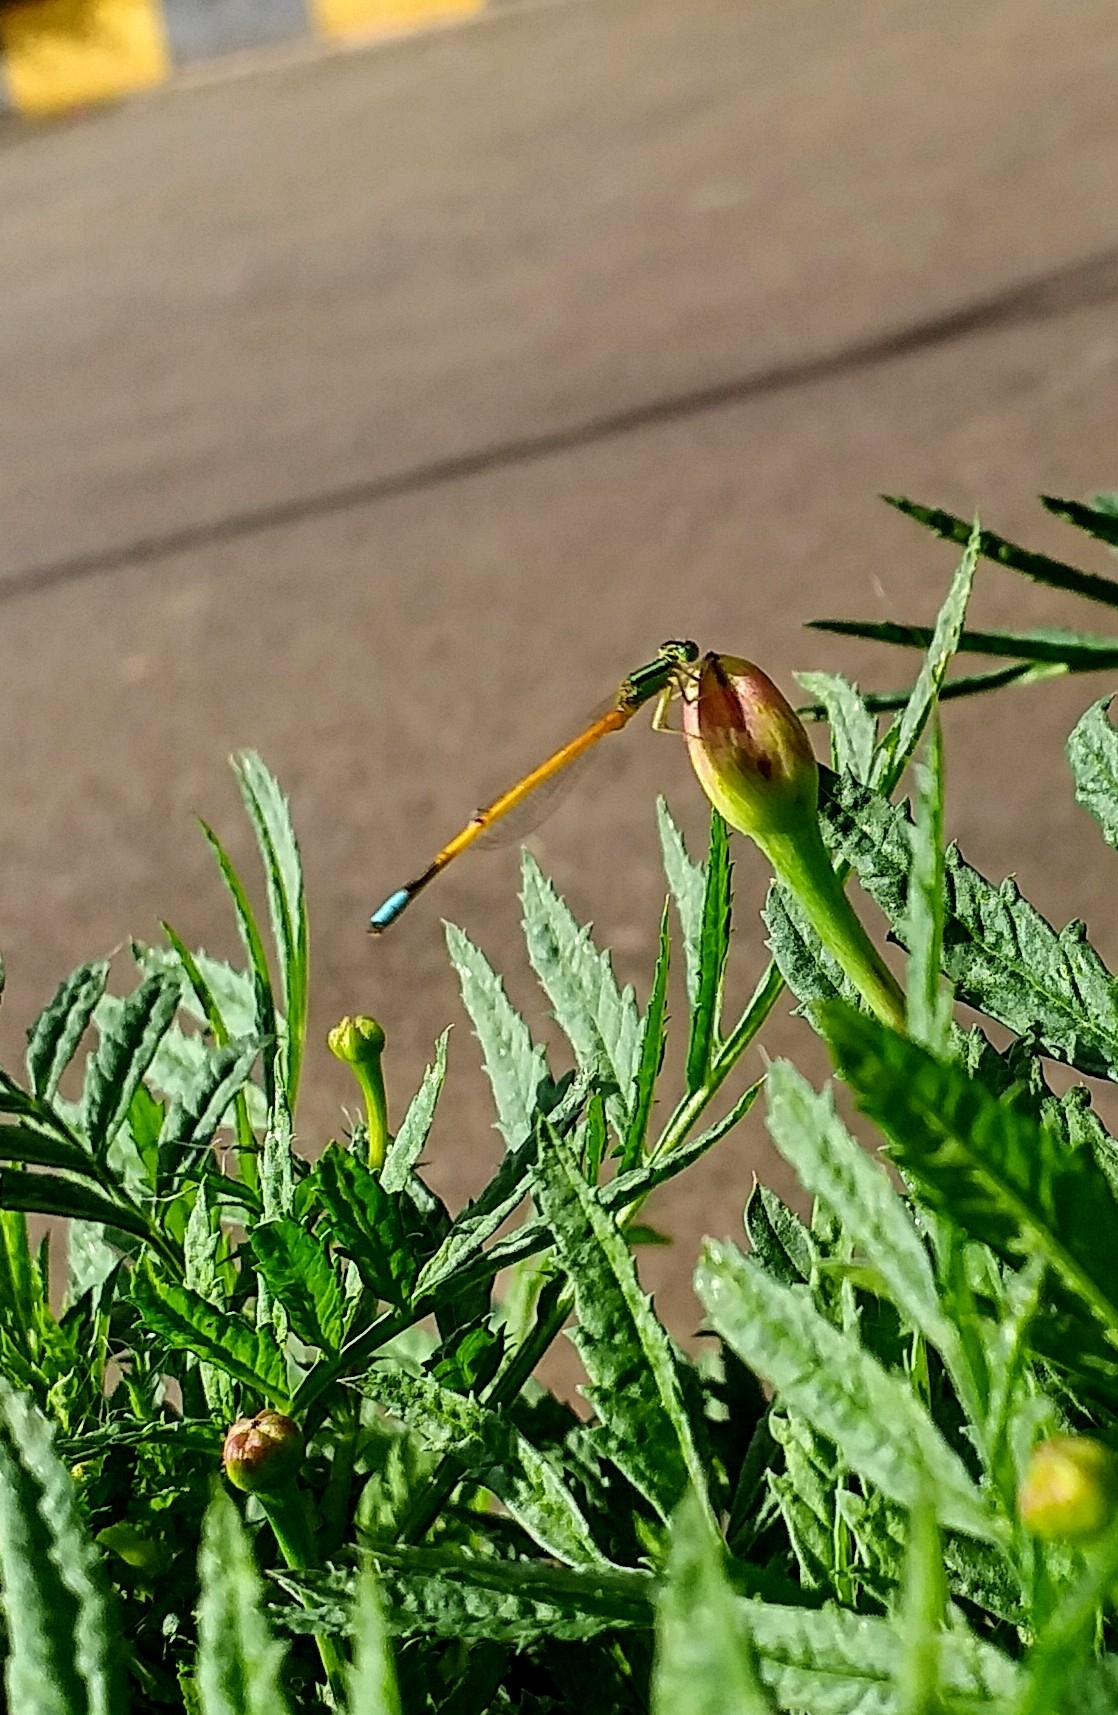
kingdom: Animalia
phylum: Arthropoda
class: Insecta
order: Odonata
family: Coenagrionidae
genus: Ischnura
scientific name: Ischnura rubilio
